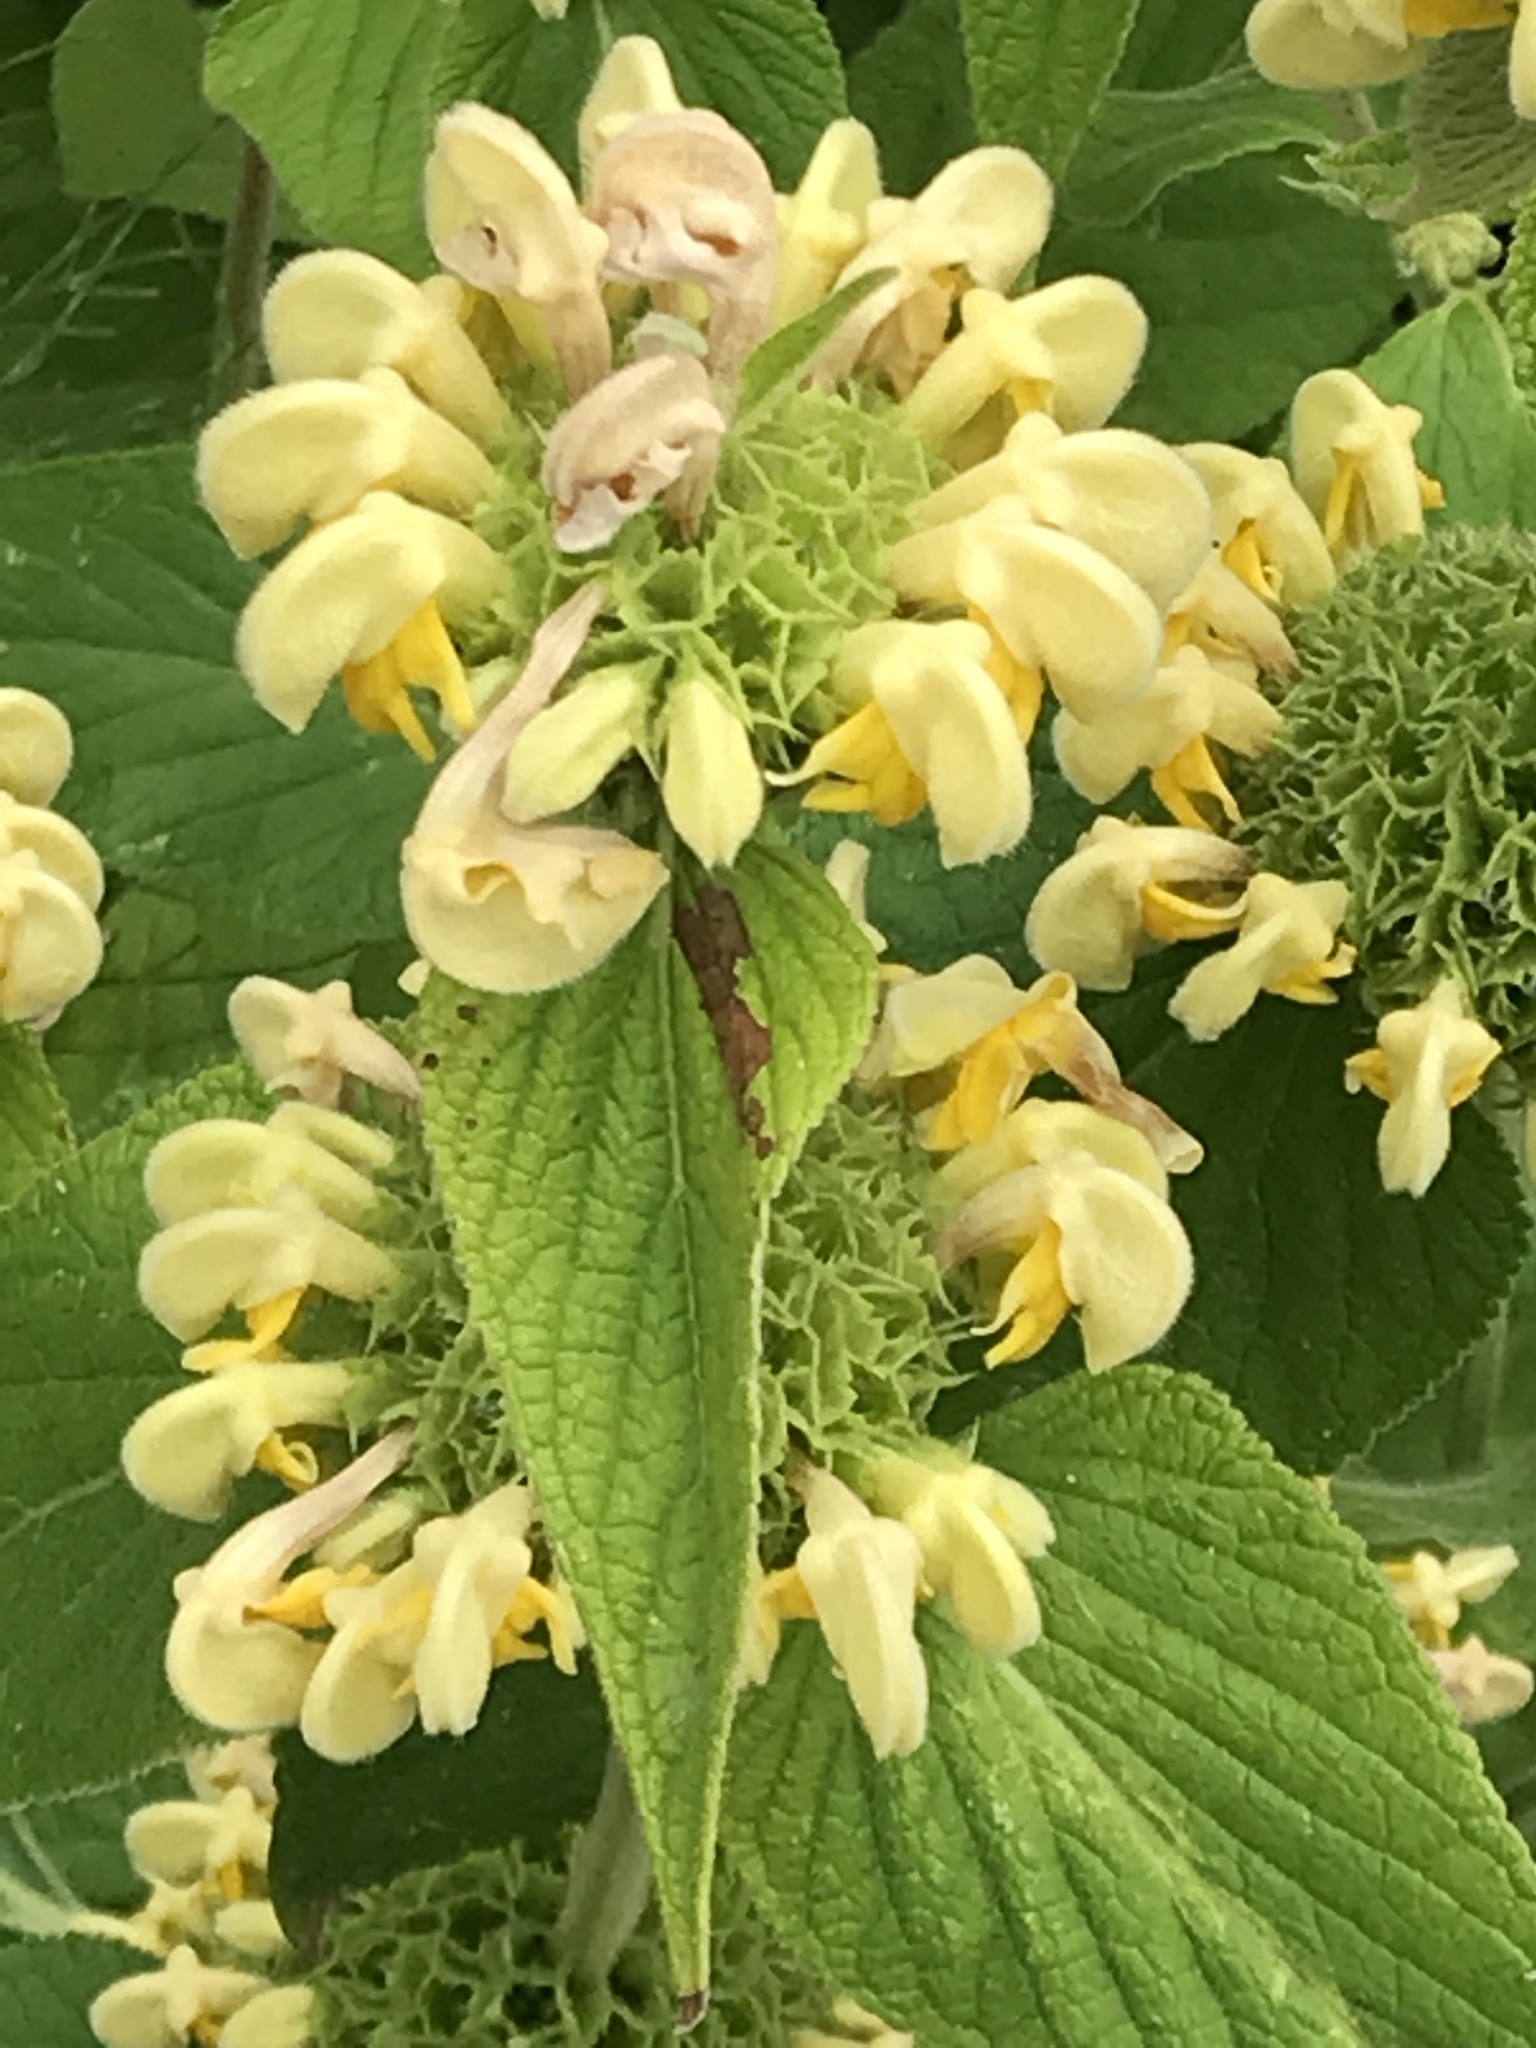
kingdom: Plantae
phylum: Tracheophyta
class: Magnoliopsida
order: Lamiales
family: Lamiaceae
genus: Phlomis
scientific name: Phlomis russeliana
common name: Turkish sage
